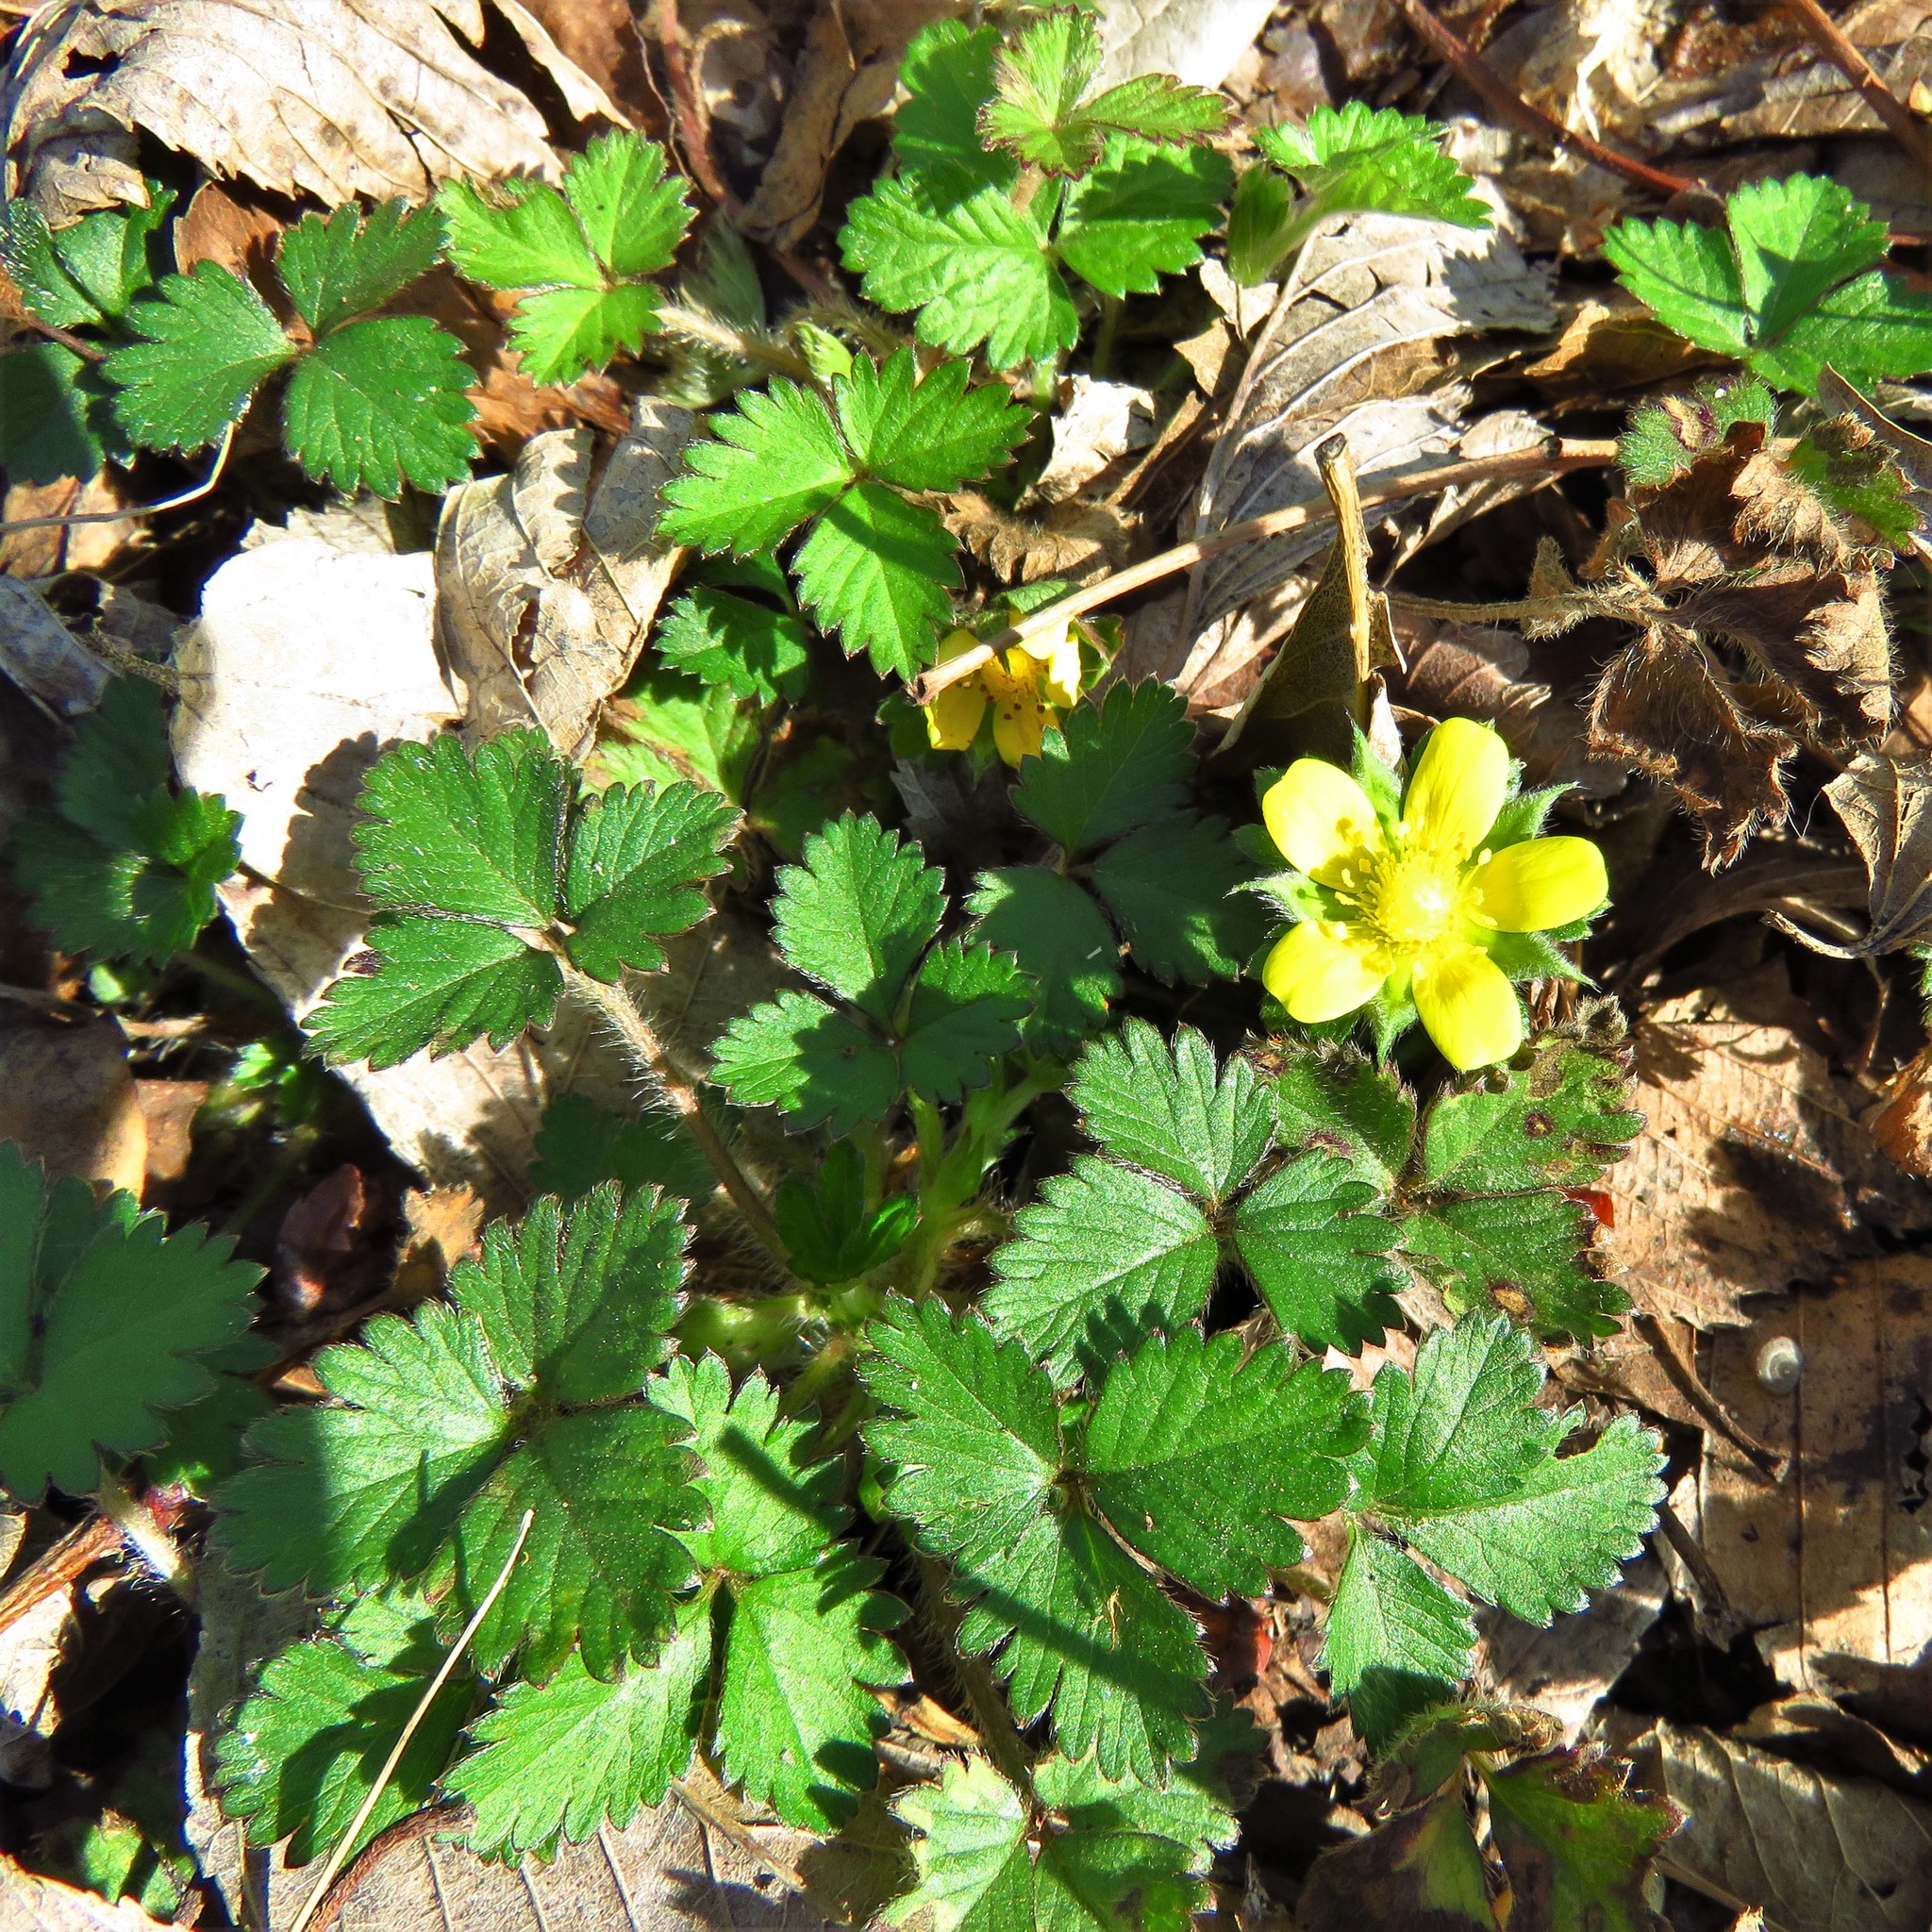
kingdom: Plantae
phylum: Tracheophyta
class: Magnoliopsida
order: Rosales
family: Rosaceae
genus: Potentilla
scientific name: Potentilla indica
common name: Yellow-flowered strawberry
